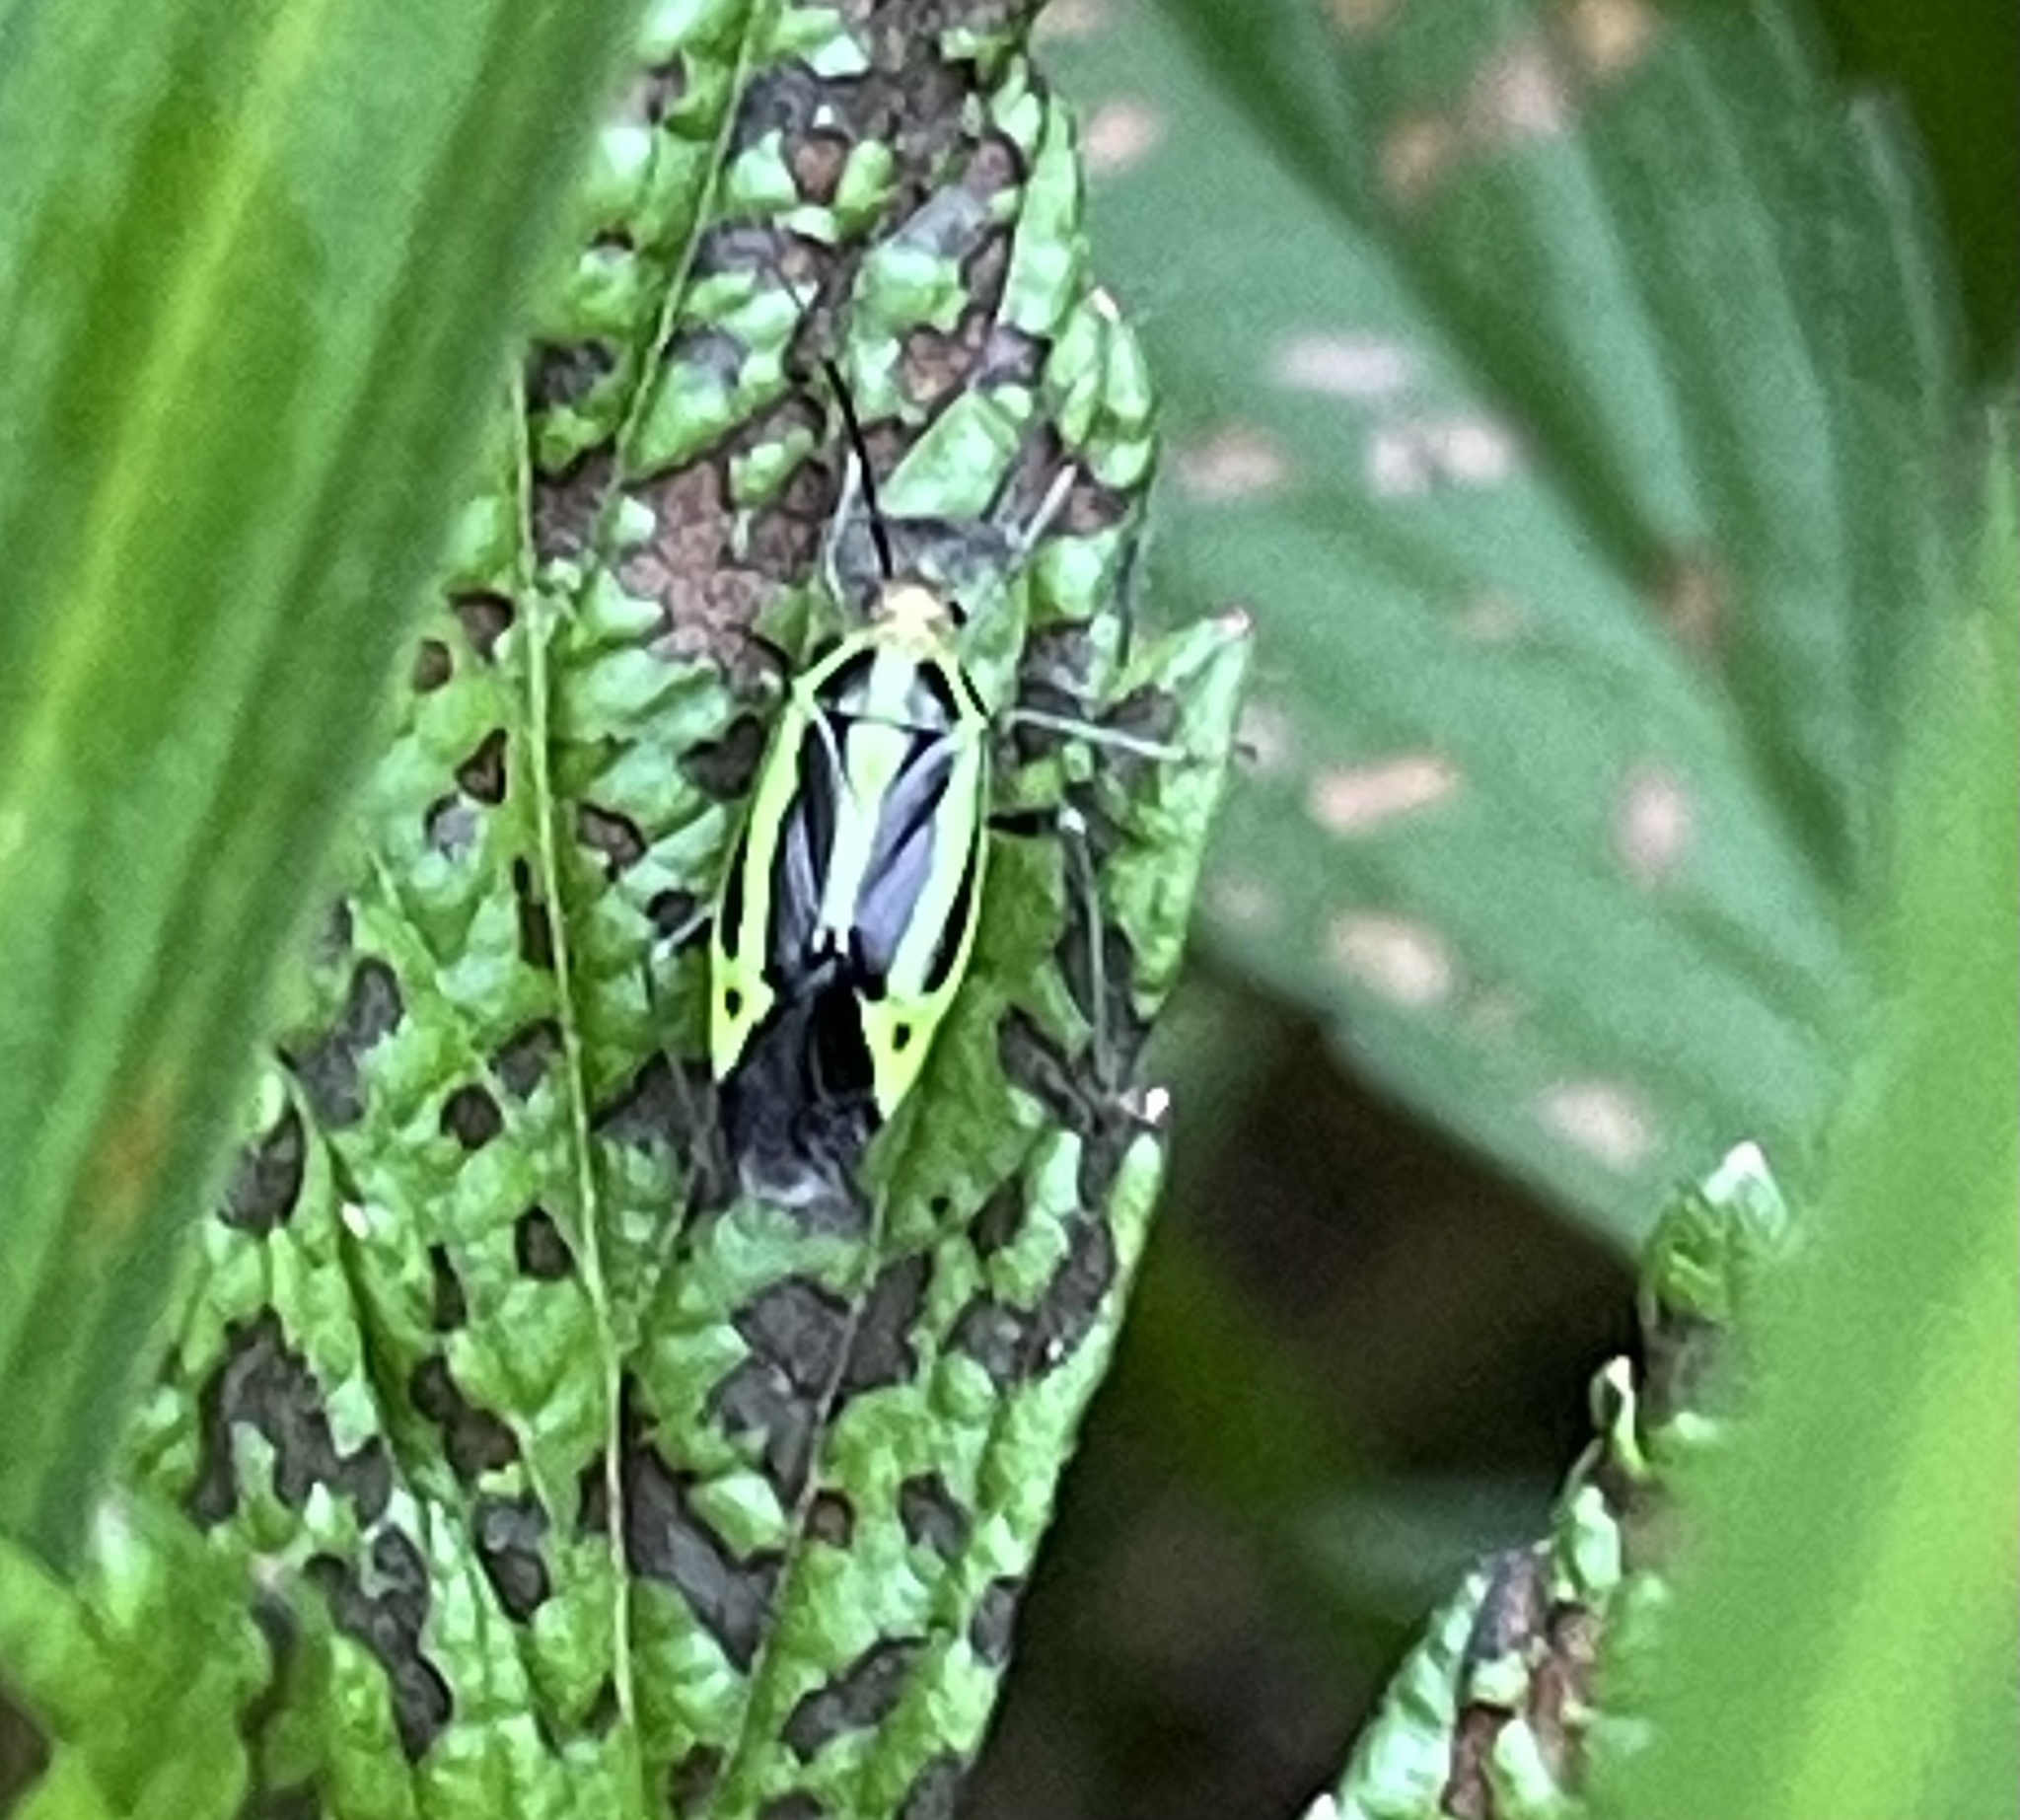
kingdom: Animalia
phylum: Arthropoda
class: Insecta
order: Hemiptera
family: Miridae
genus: Poecilocapsus
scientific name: Poecilocapsus lineatus
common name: Four-lined plant bug
